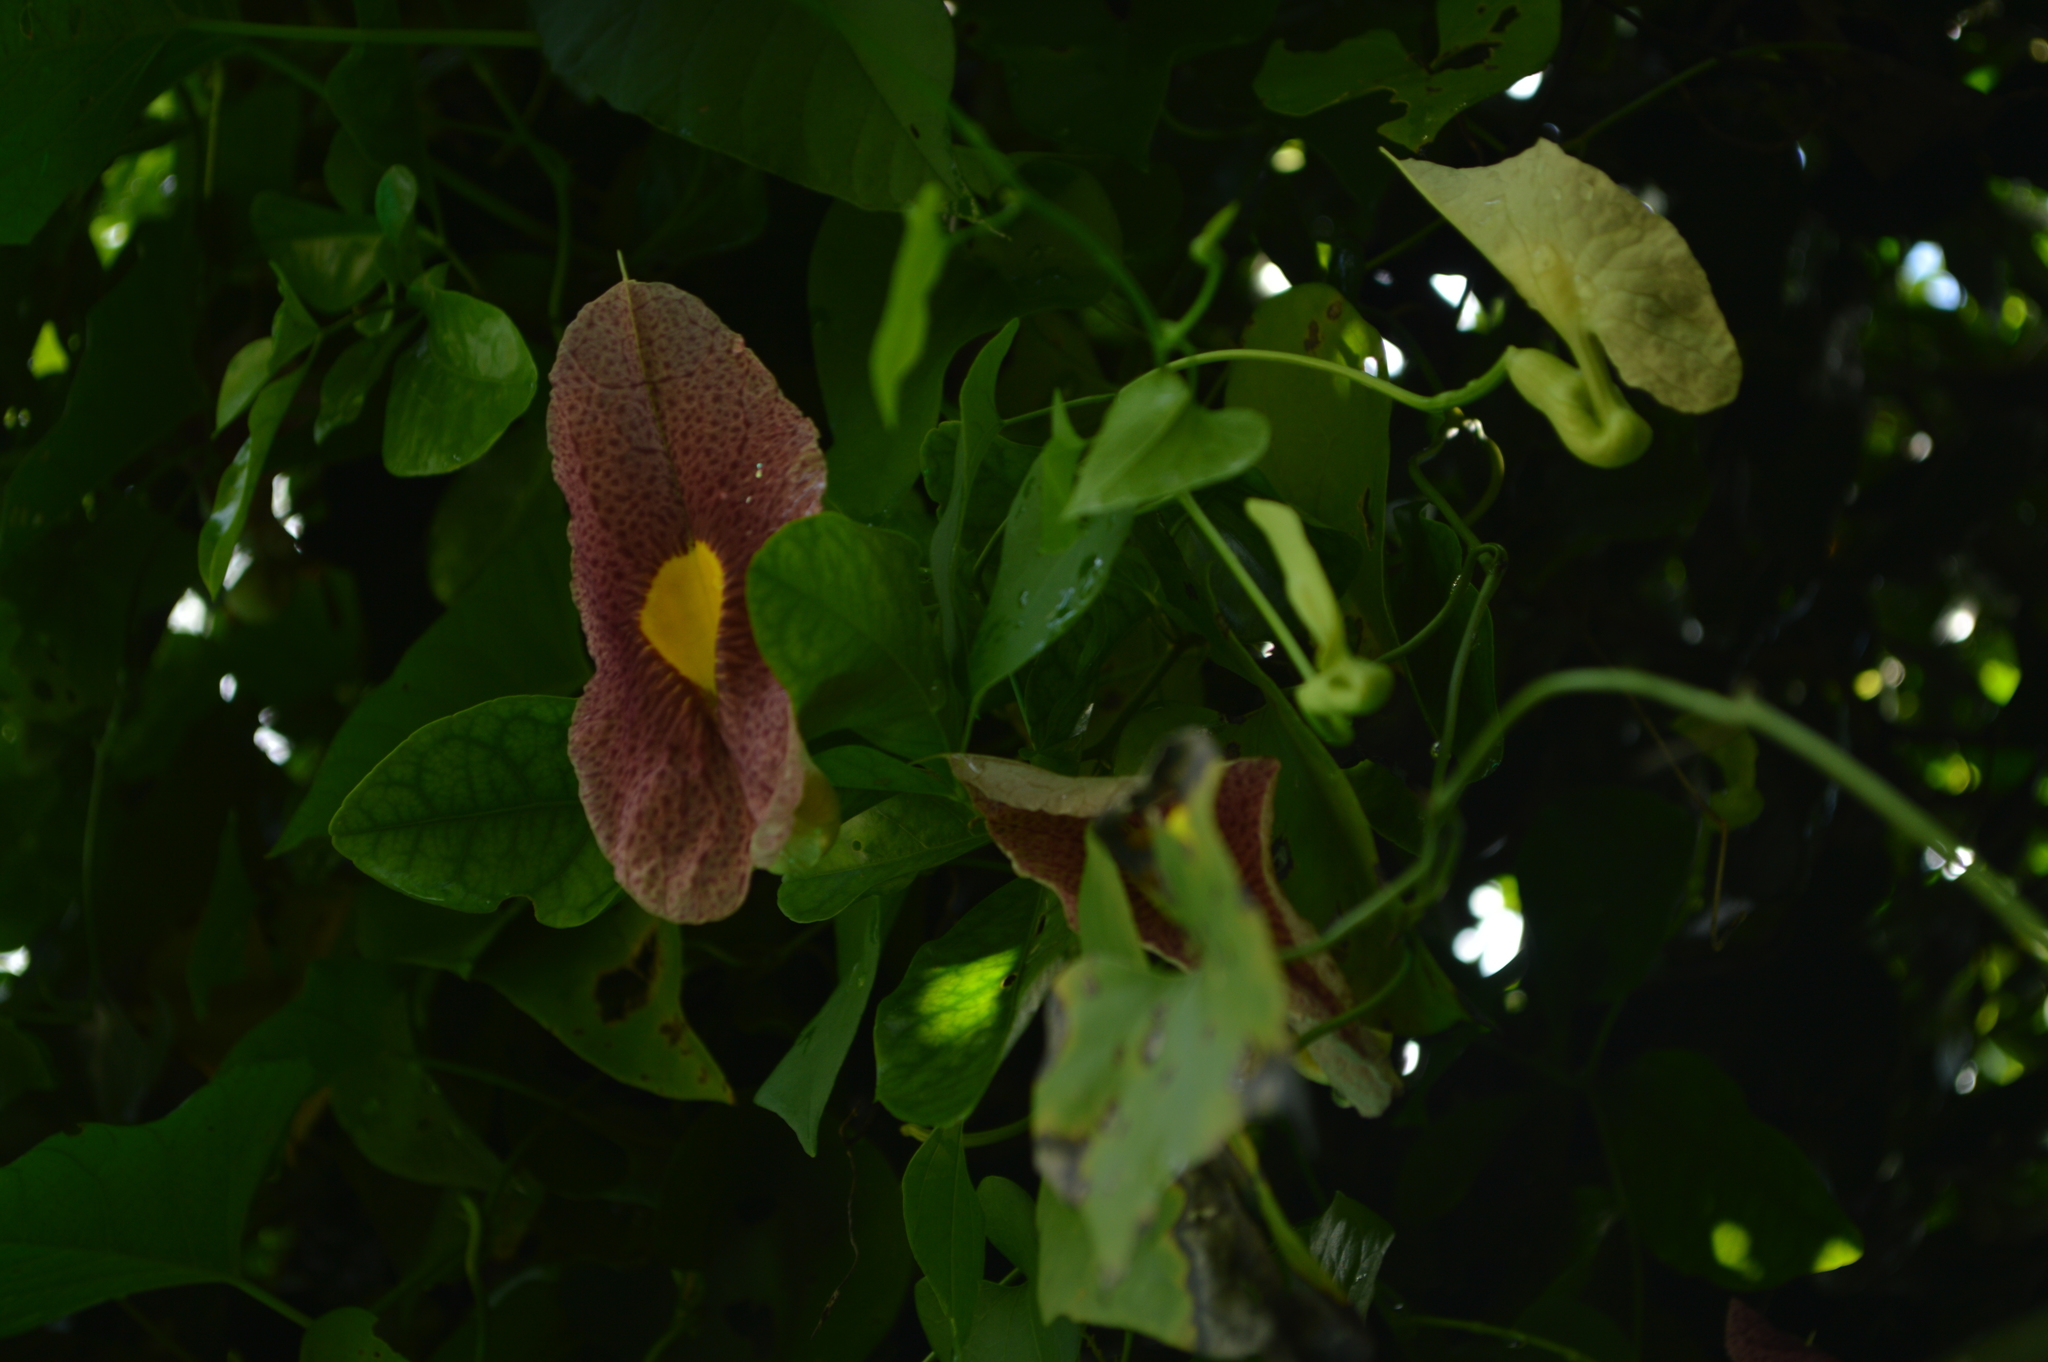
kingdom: Plantae
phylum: Tracheophyta
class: Magnoliopsida
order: Piperales
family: Aristolochiaceae
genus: Aristolochia
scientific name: Aristolochia odoratissima
